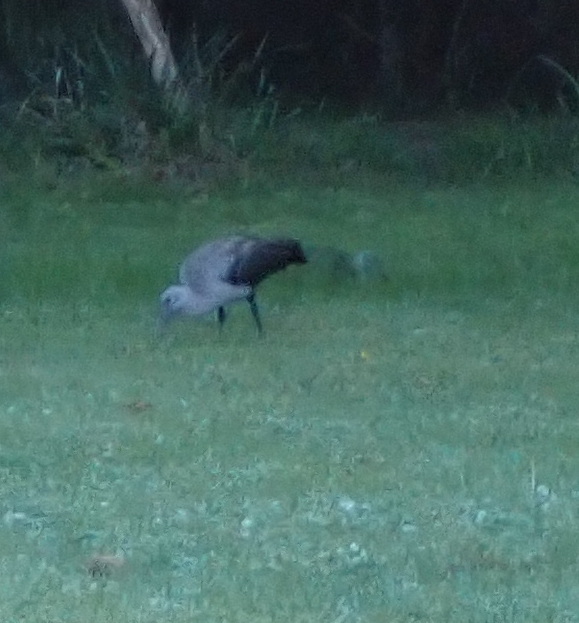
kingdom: Animalia
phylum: Chordata
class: Aves
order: Pelecaniformes
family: Threskiornithidae
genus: Bostrychia
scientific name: Bostrychia hagedash
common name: Hadada ibis
